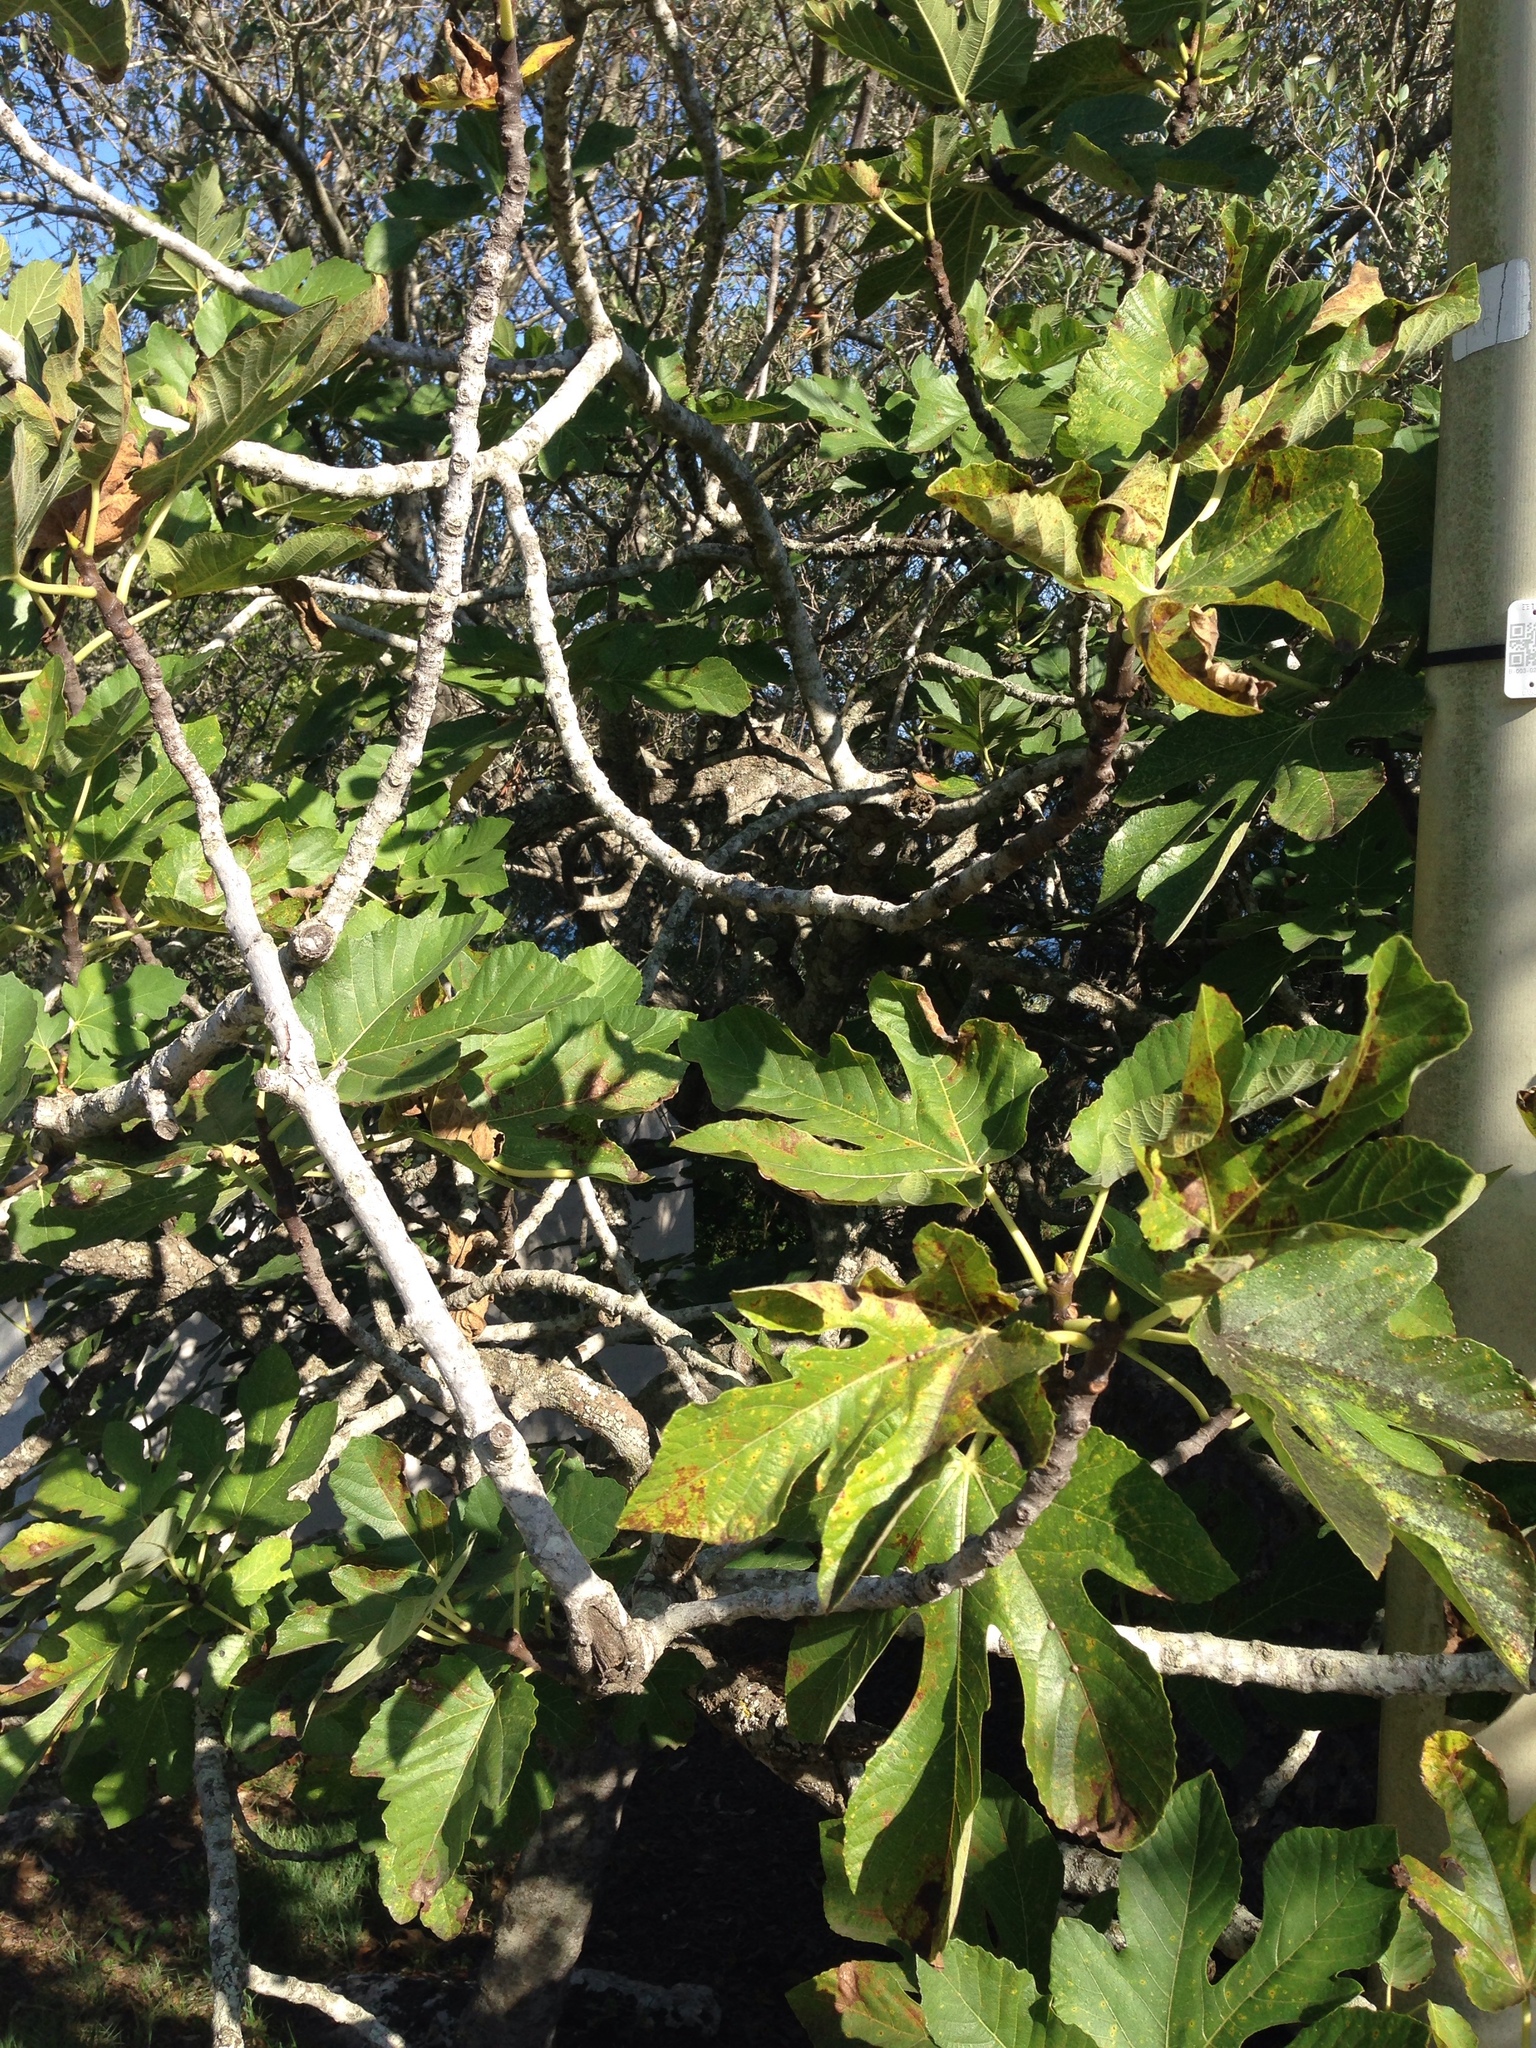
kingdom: Plantae
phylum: Tracheophyta
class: Magnoliopsida
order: Rosales
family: Moraceae
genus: Ficus
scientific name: Ficus carica
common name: Fig
